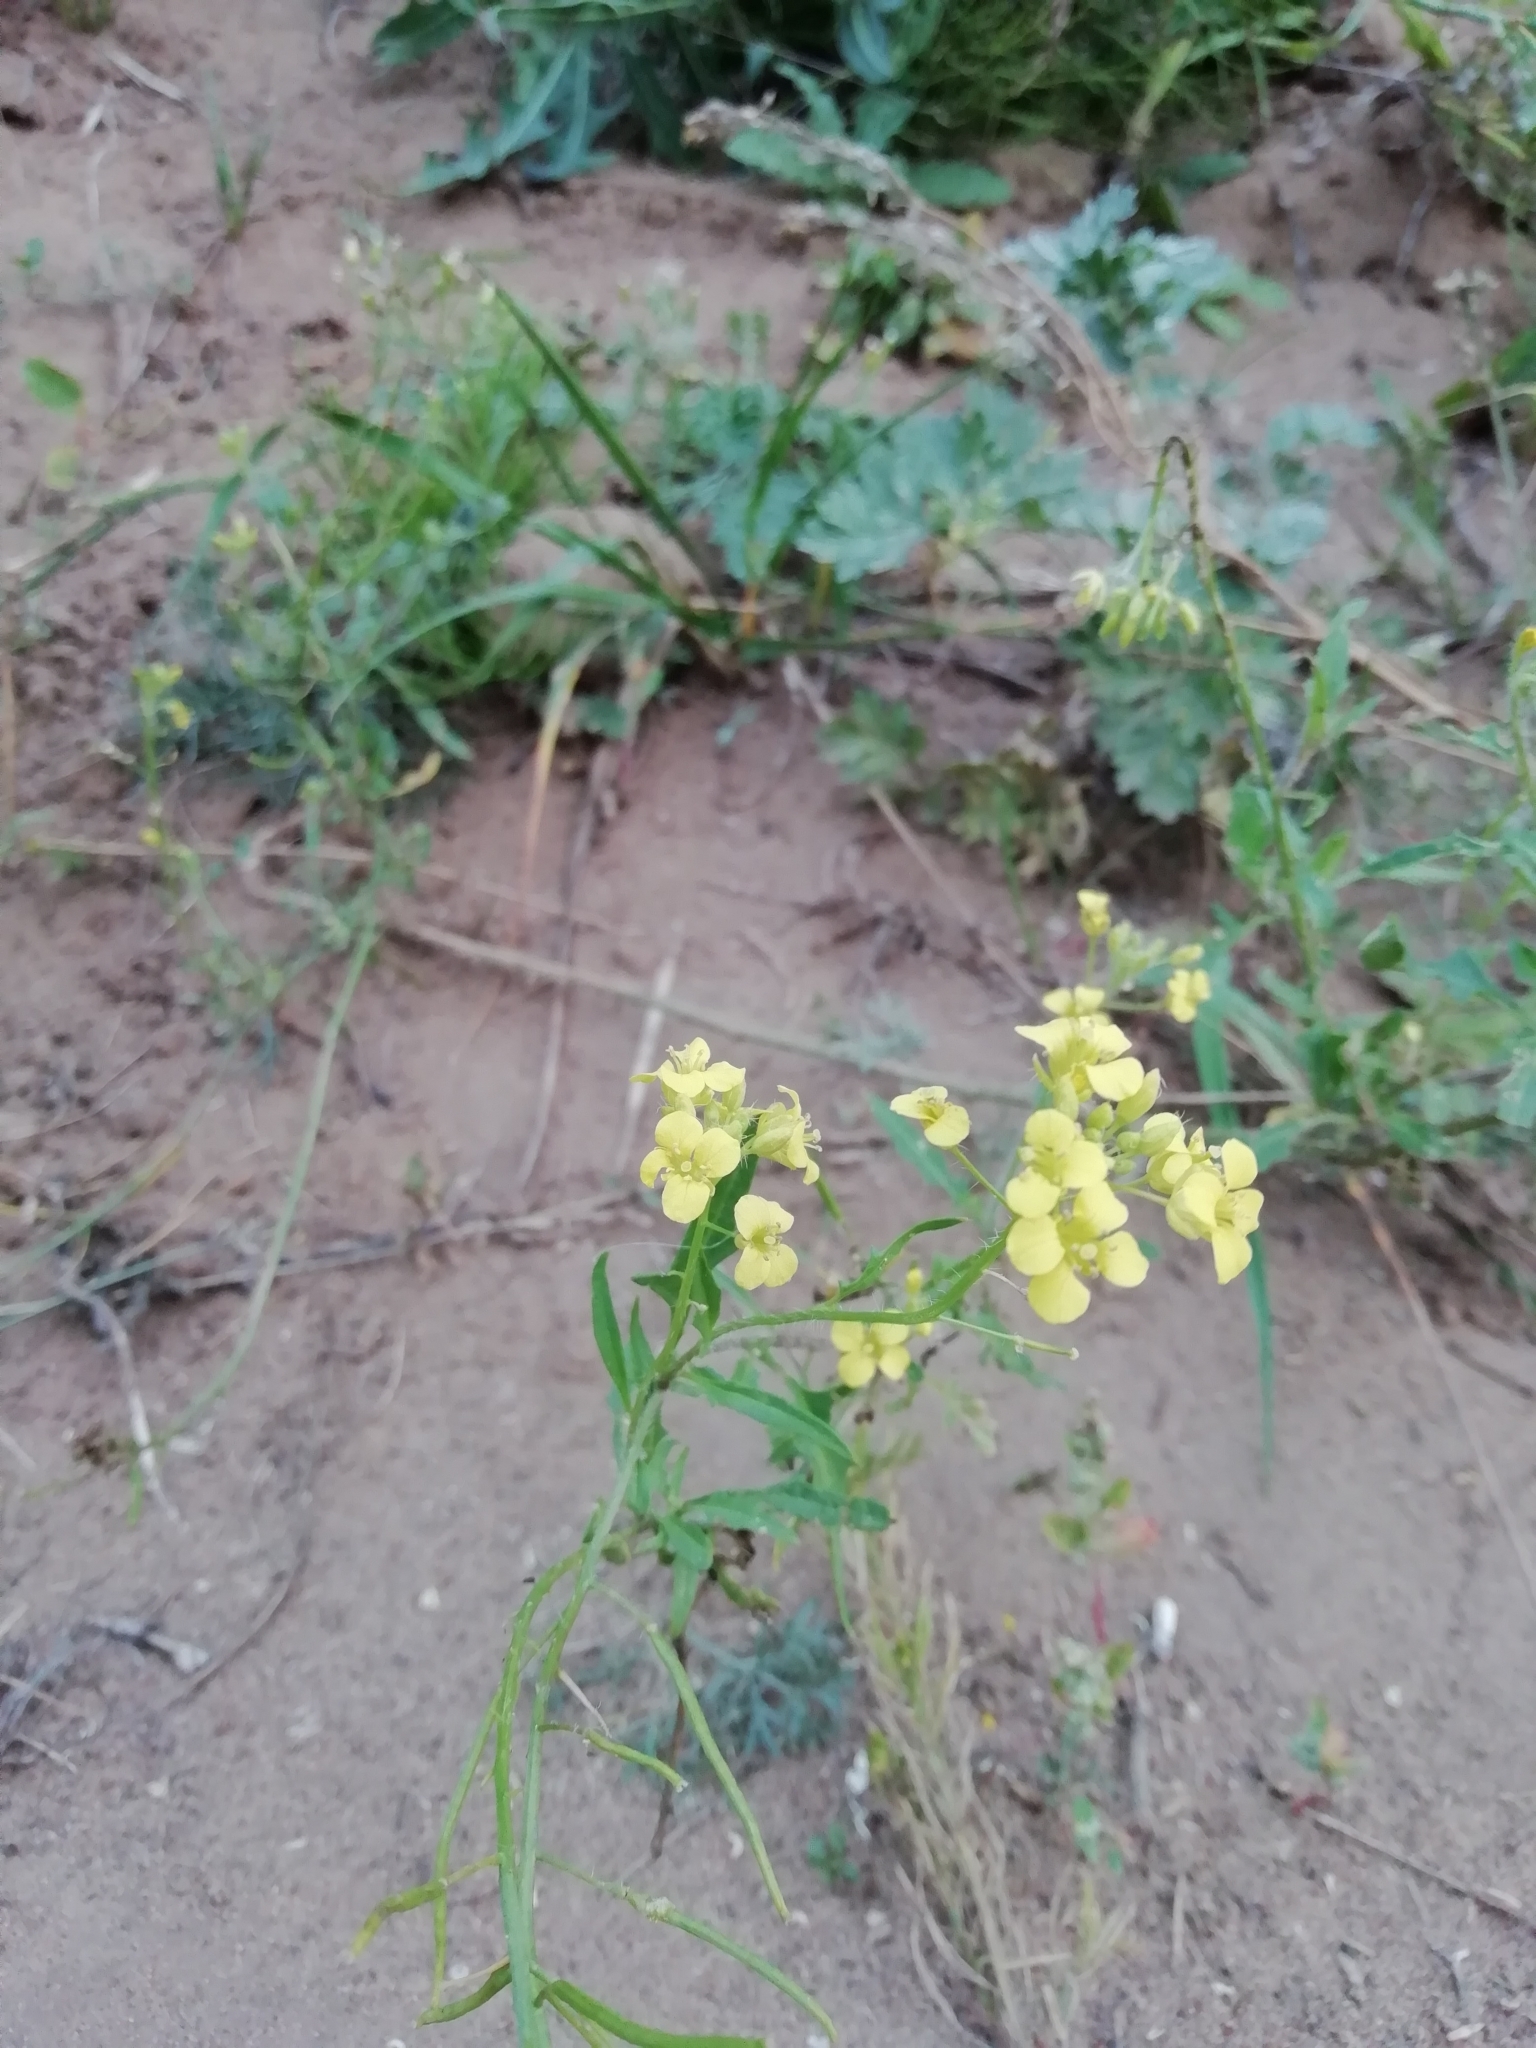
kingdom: Plantae
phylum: Tracheophyta
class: Magnoliopsida
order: Brassicales
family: Brassicaceae
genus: Sisymbrium
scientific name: Sisymbrium loeselii
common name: False london-rocket
